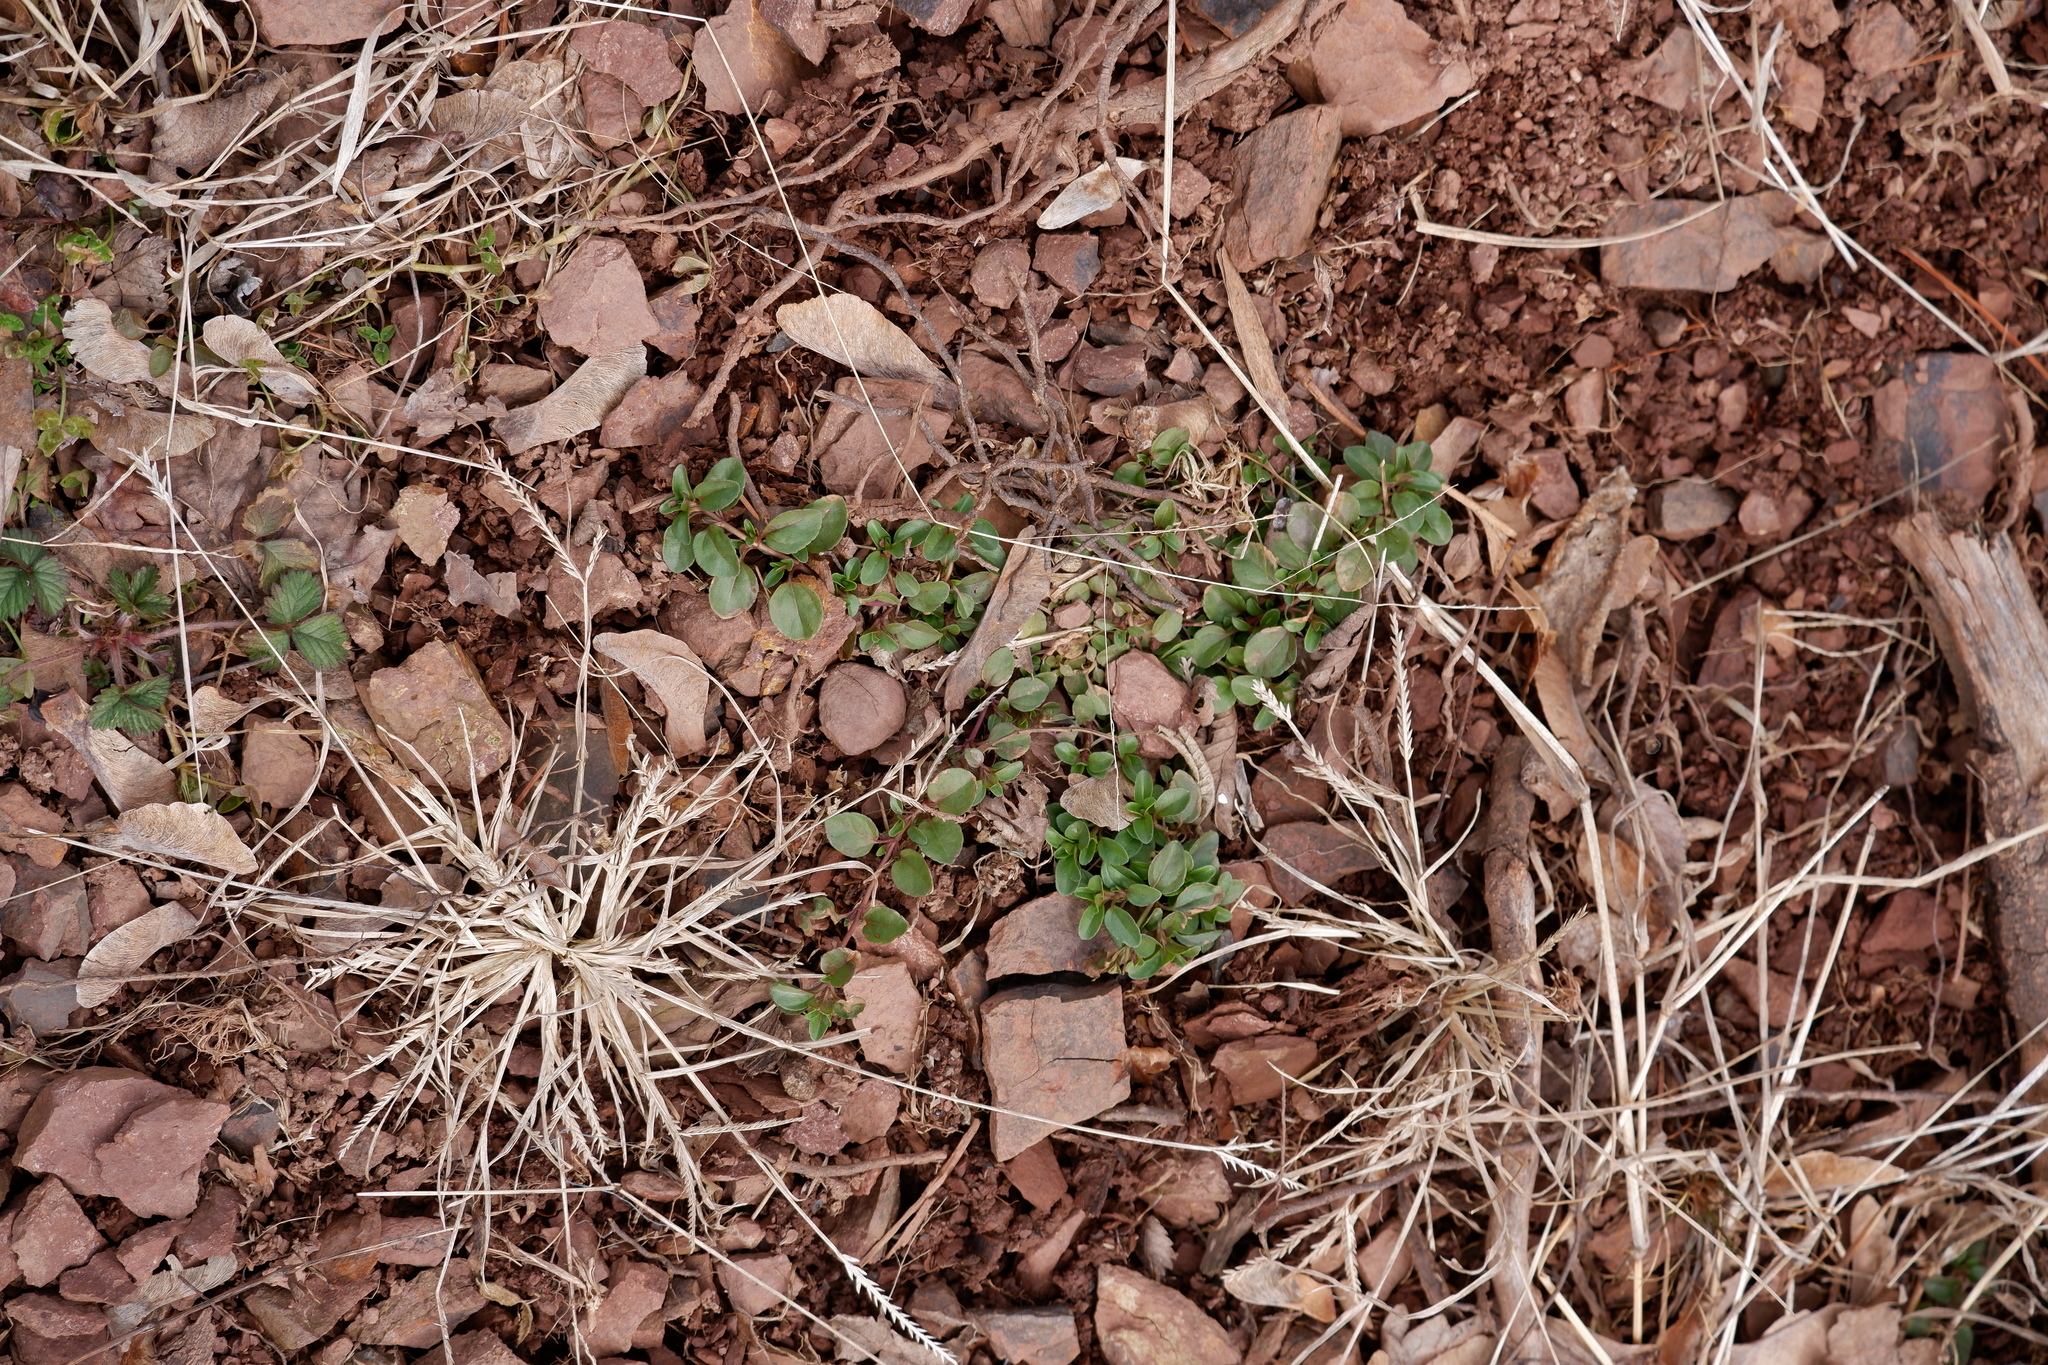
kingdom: Plantae
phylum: Tracheophyta
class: Magnoliopsida
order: Lamiales
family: Plantaginaceae
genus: Veronica
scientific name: Veronica serpyllifolia
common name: Thyme-leaved speedwell
